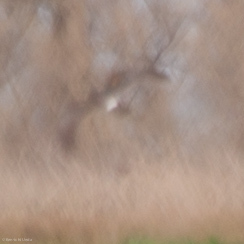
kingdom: Animalia
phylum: Chordata
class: Aves
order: Accipitriformes
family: Accipitridae
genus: Circus
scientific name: Circus cyaneus
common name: Hen harrier
